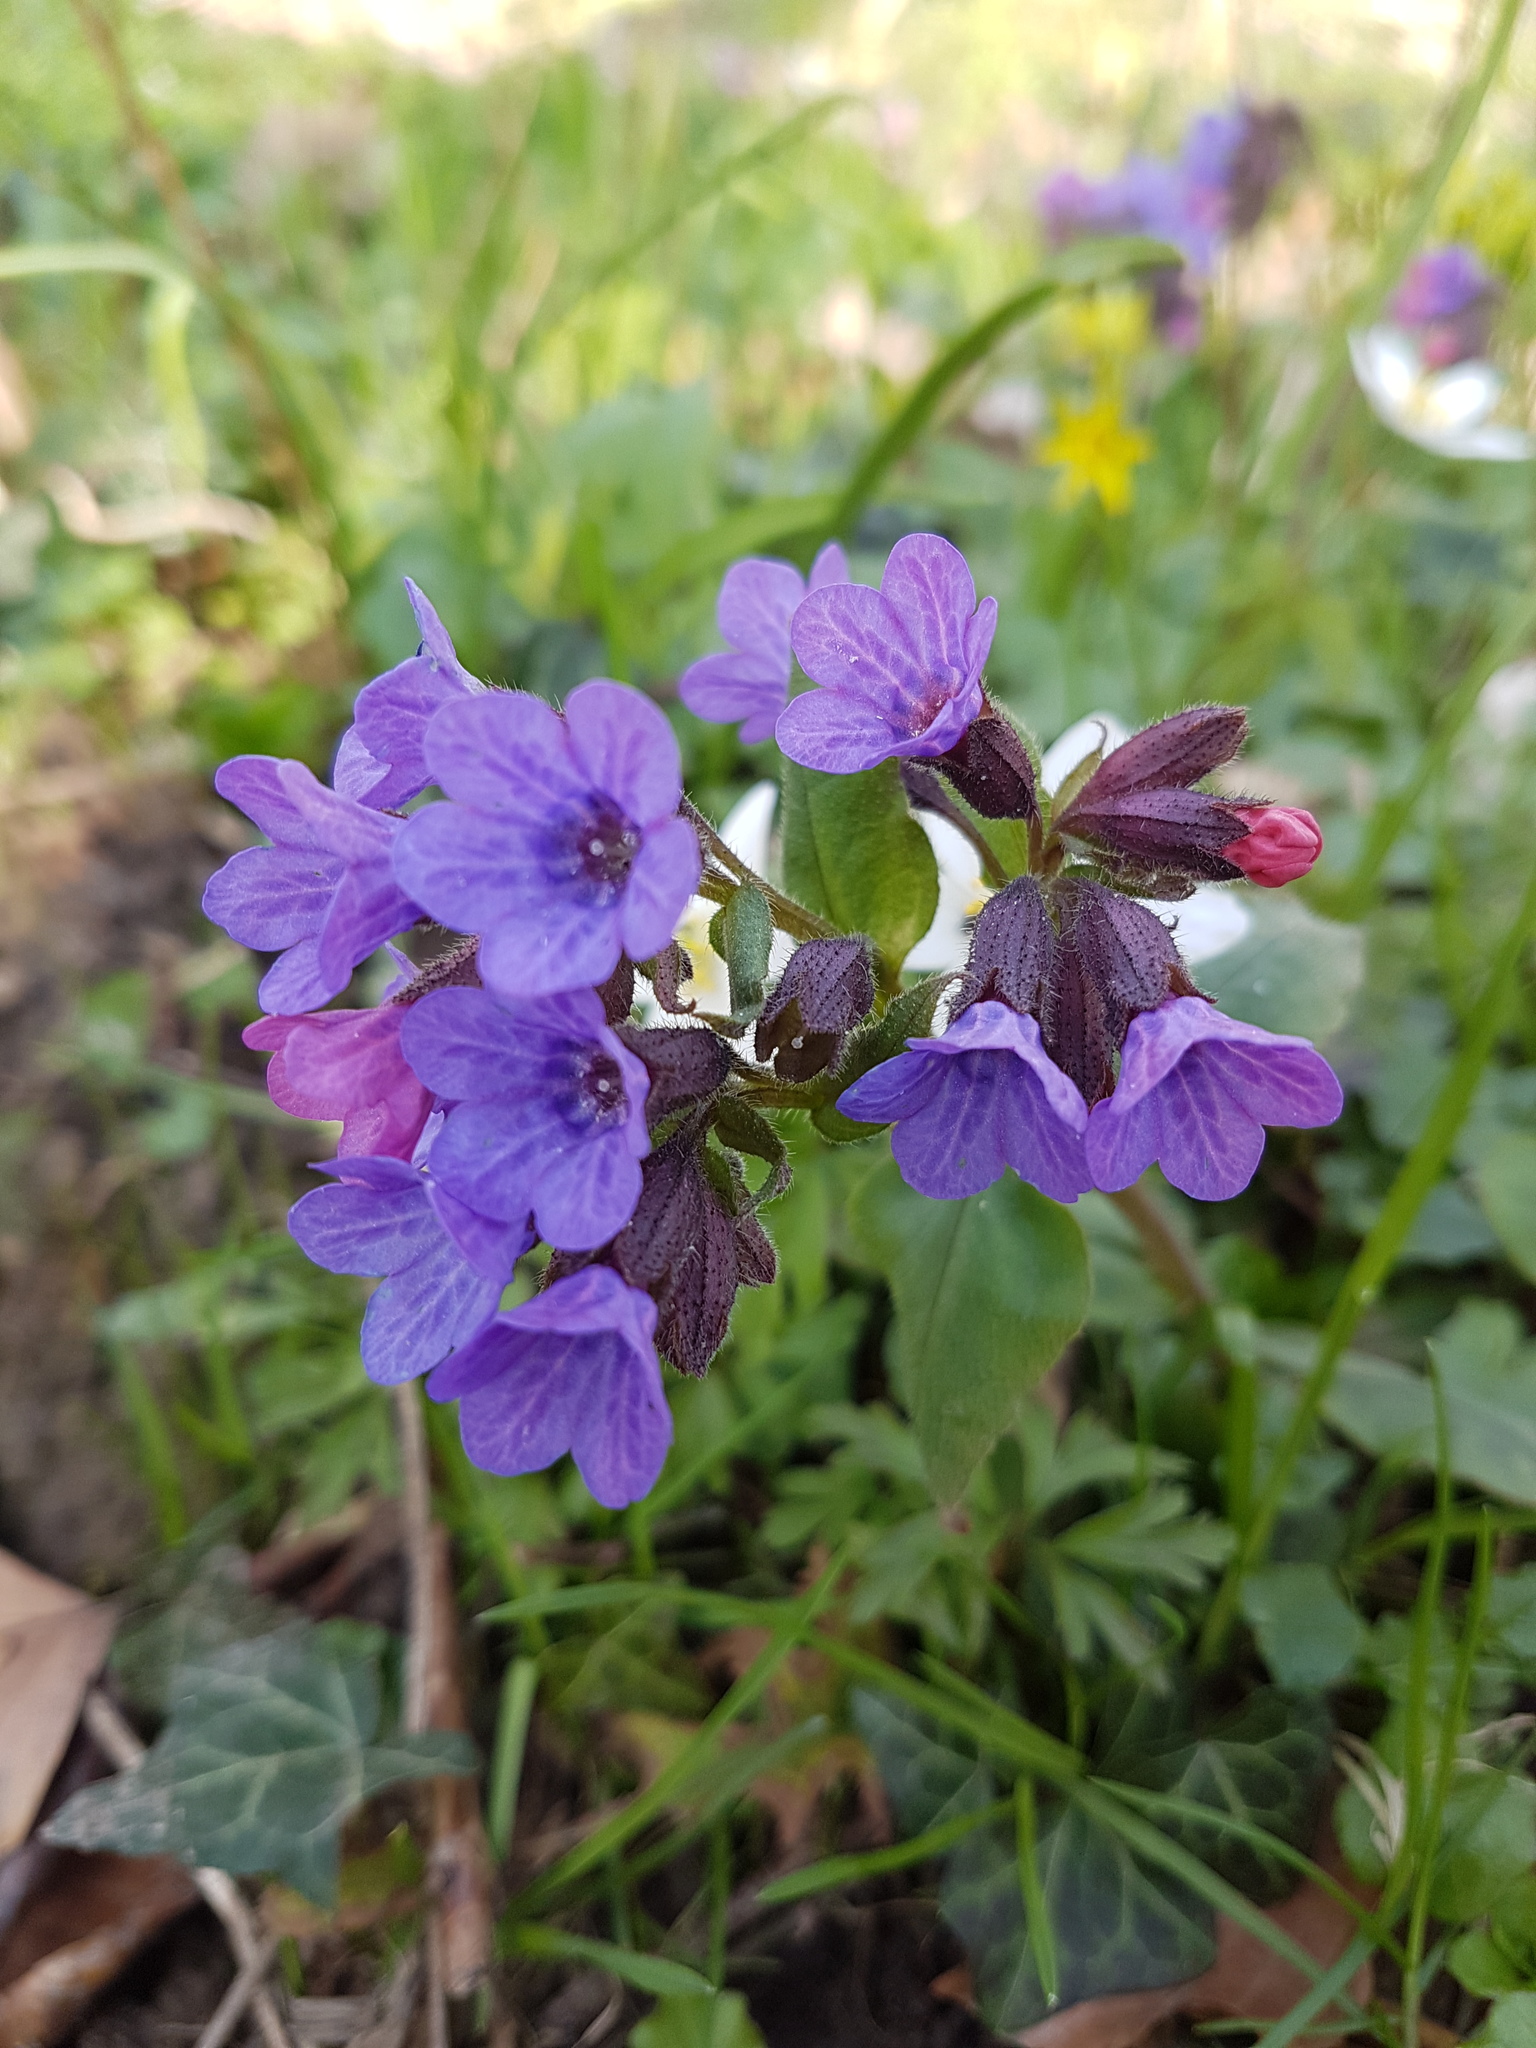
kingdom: Plantae
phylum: Tracheophyta
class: Magnoliopsida
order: Boraginales
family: Boraginaceae
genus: Pulmonaria
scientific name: Pulmonaria obscura
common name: Suffolk lungwort
